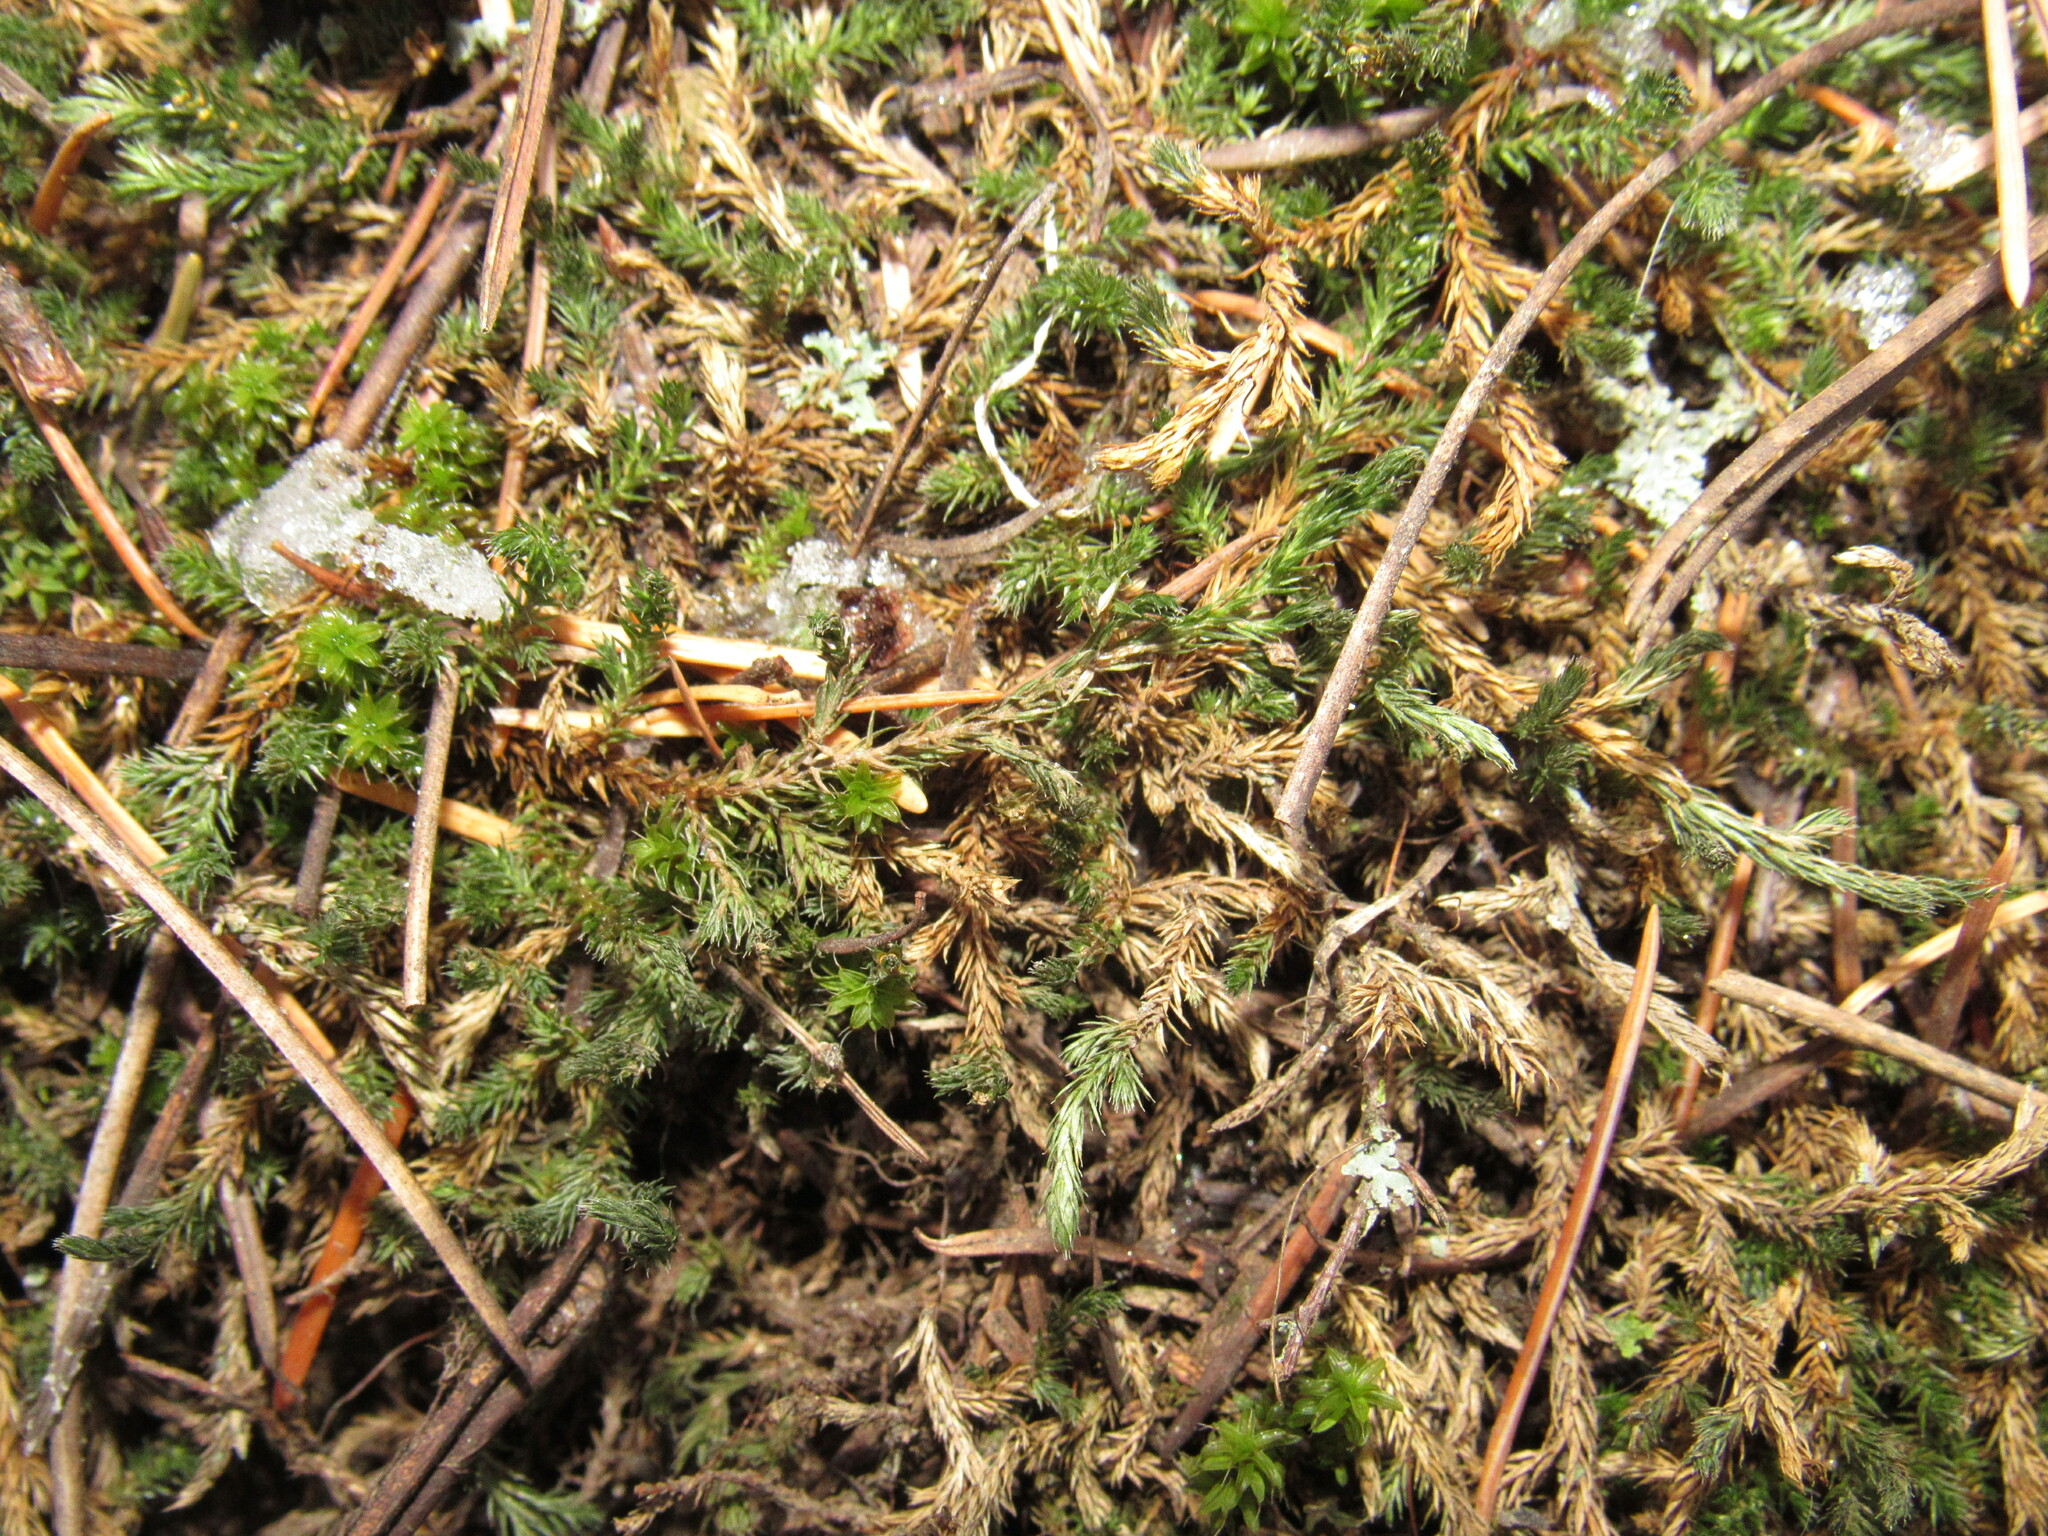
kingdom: Plantae
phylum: Tracheophyta
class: Lycopodiopsida
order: Selaginellales
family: Selaginellaceae
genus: Selaginella
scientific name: Selaginella underwoodii
